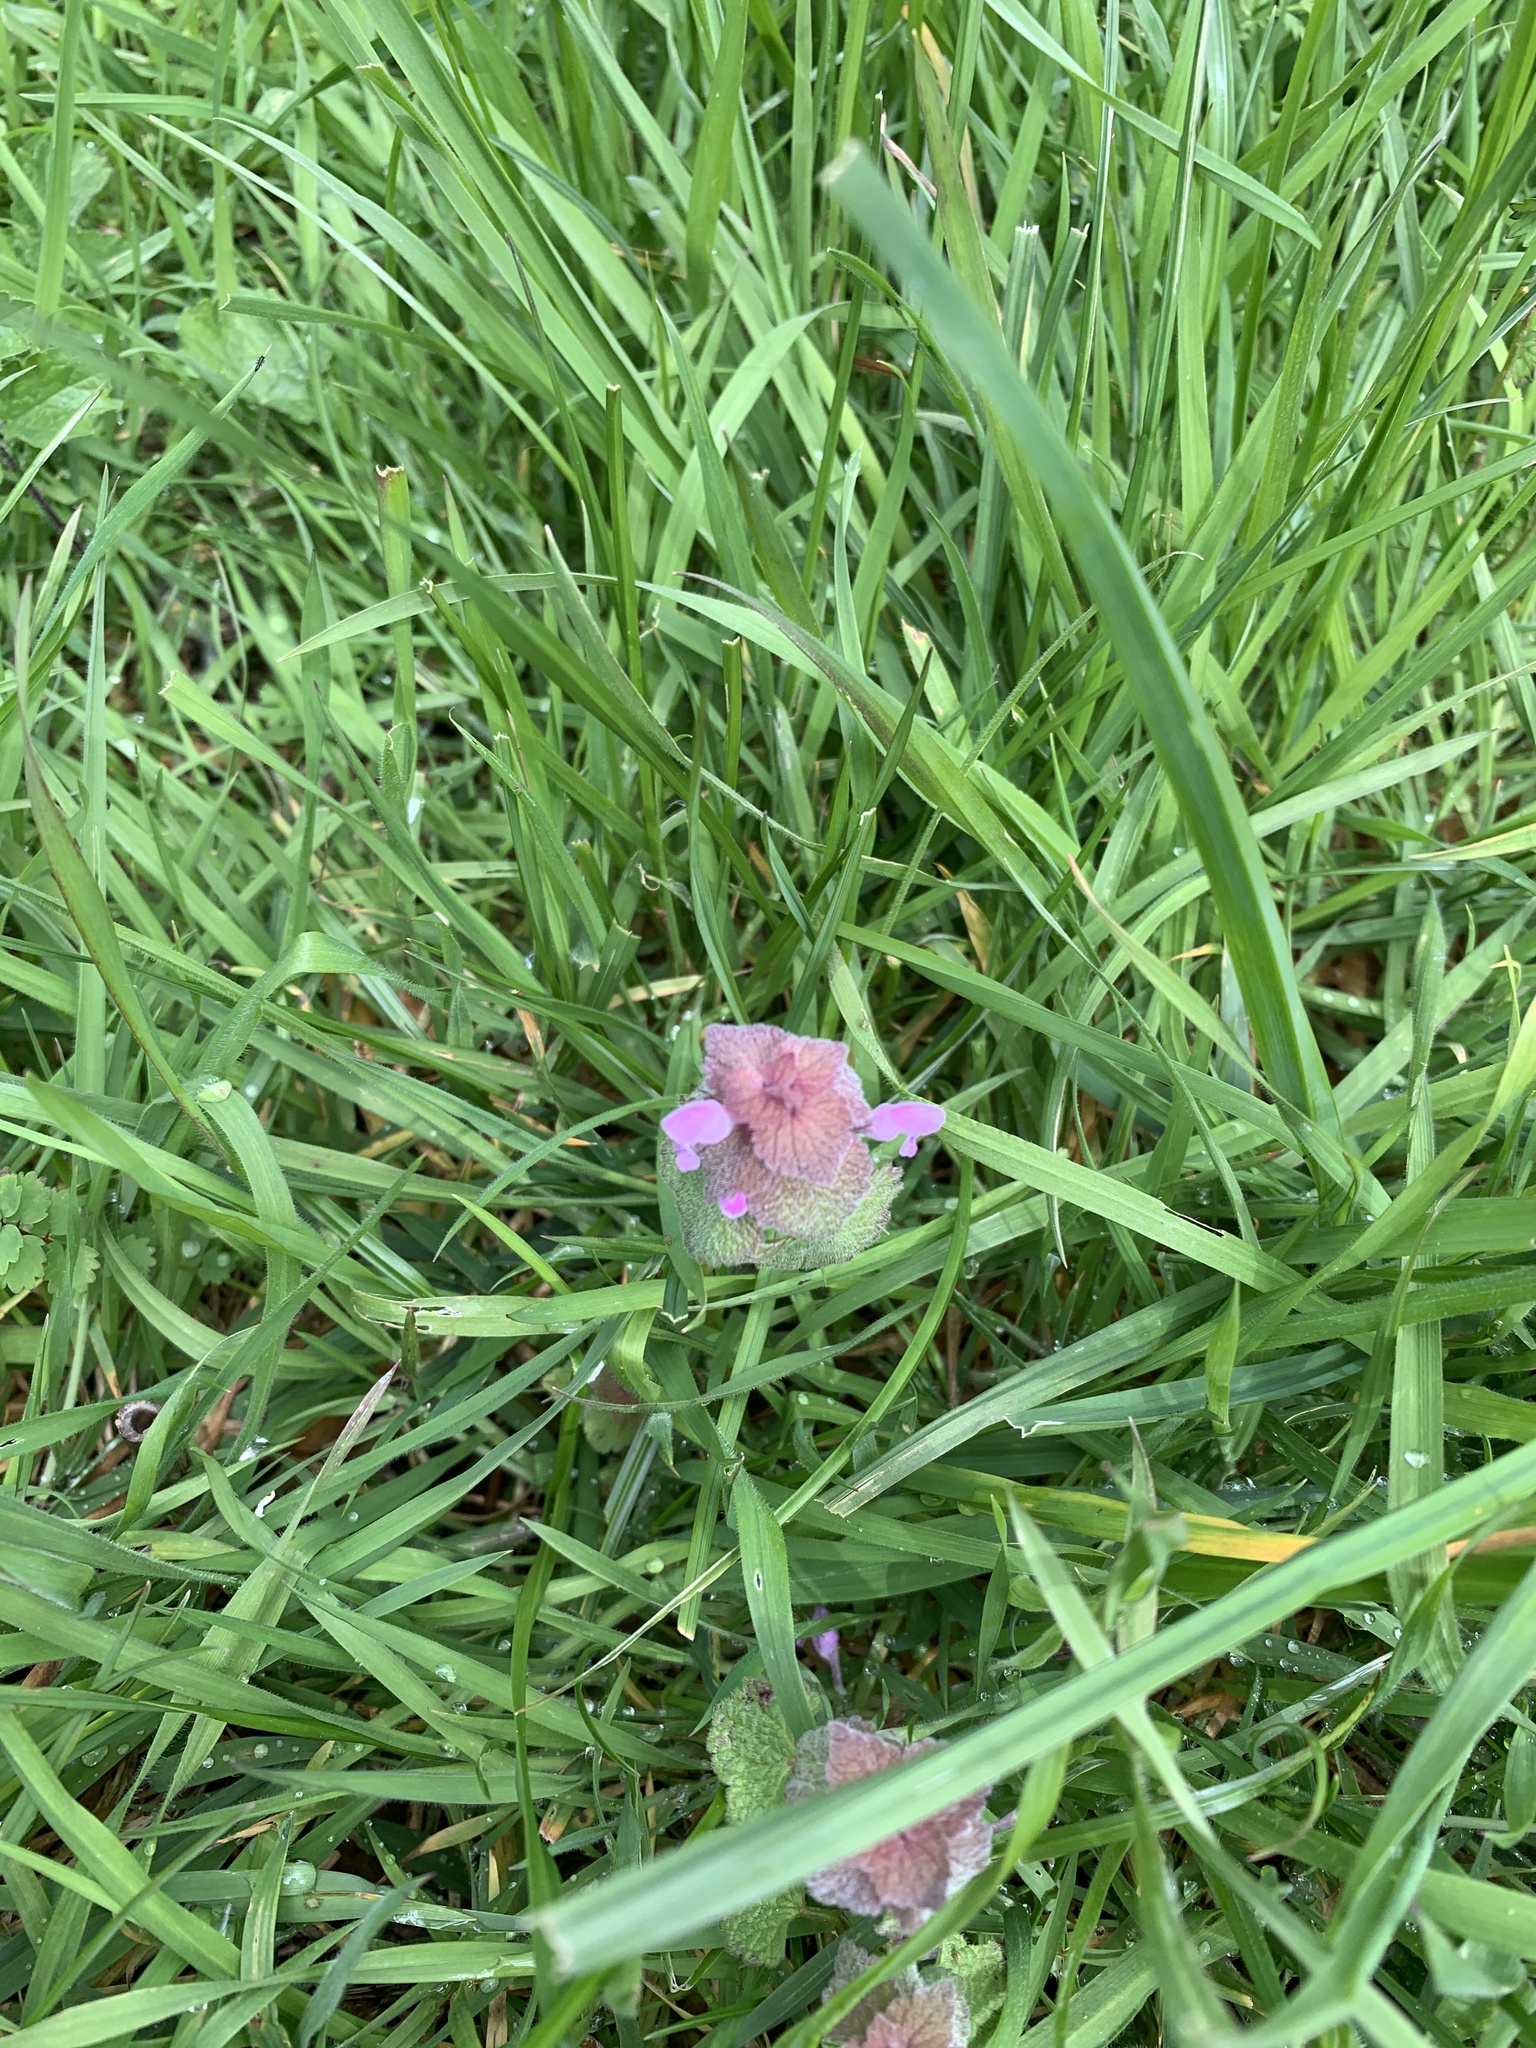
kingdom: Plantae
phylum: Tracheophyta
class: Magnoliopsida
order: Lamiales
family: Lamiaceae
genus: Lamium
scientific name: Lamium purpureum
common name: Red dead-nettle
